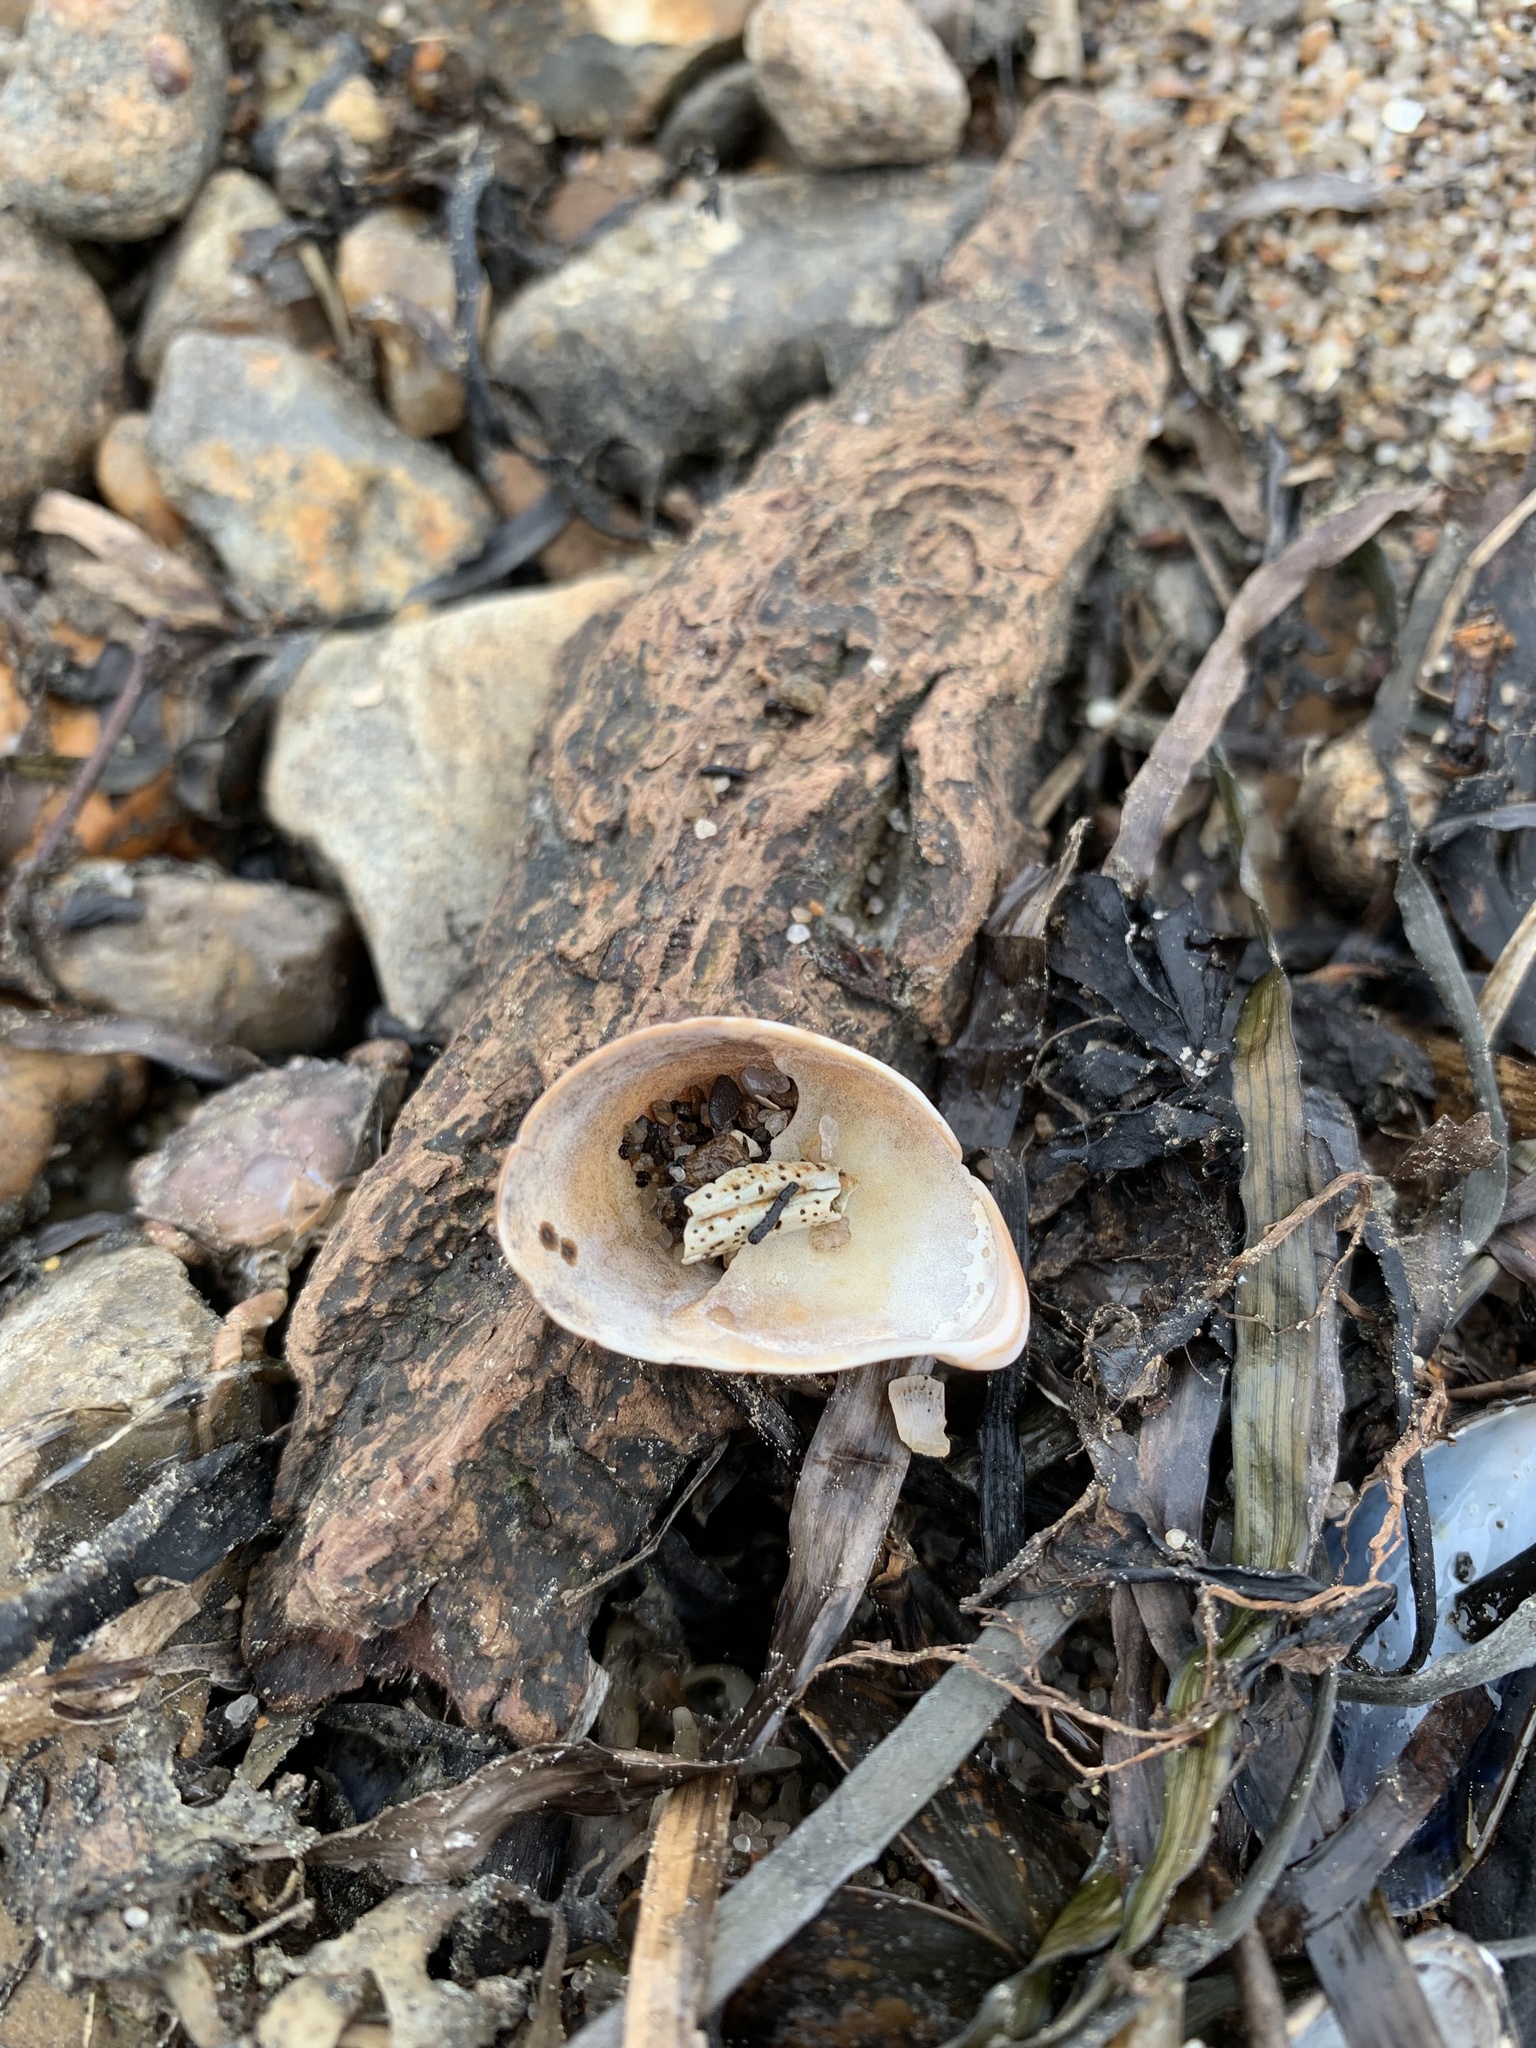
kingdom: Animalia
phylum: Mollusca
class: Gastropoda
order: Littorinimorpha
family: Calyptraeidae
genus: Crepidula
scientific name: Crepidula fornicata
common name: Slipper limpet
